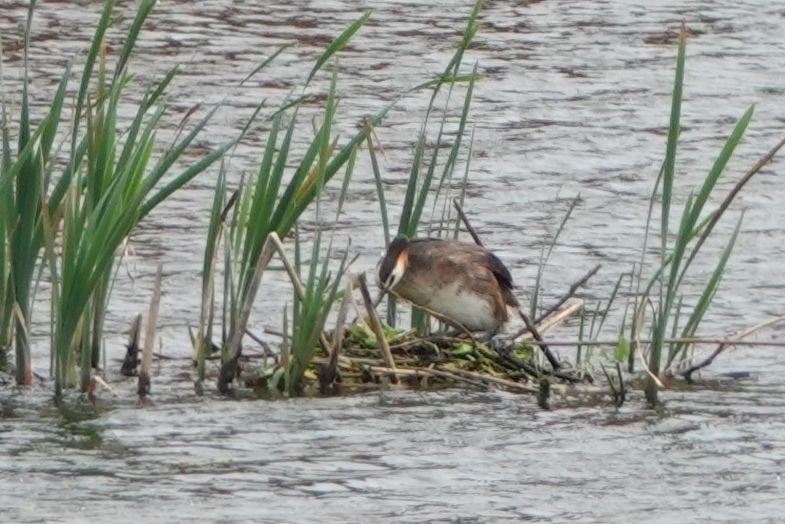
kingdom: Animalia
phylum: Chordata
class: Aves
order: Podicipediformes
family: Podicipedidae
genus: Podiceps
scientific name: Podiceps cristatus
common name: Great crested grebe
